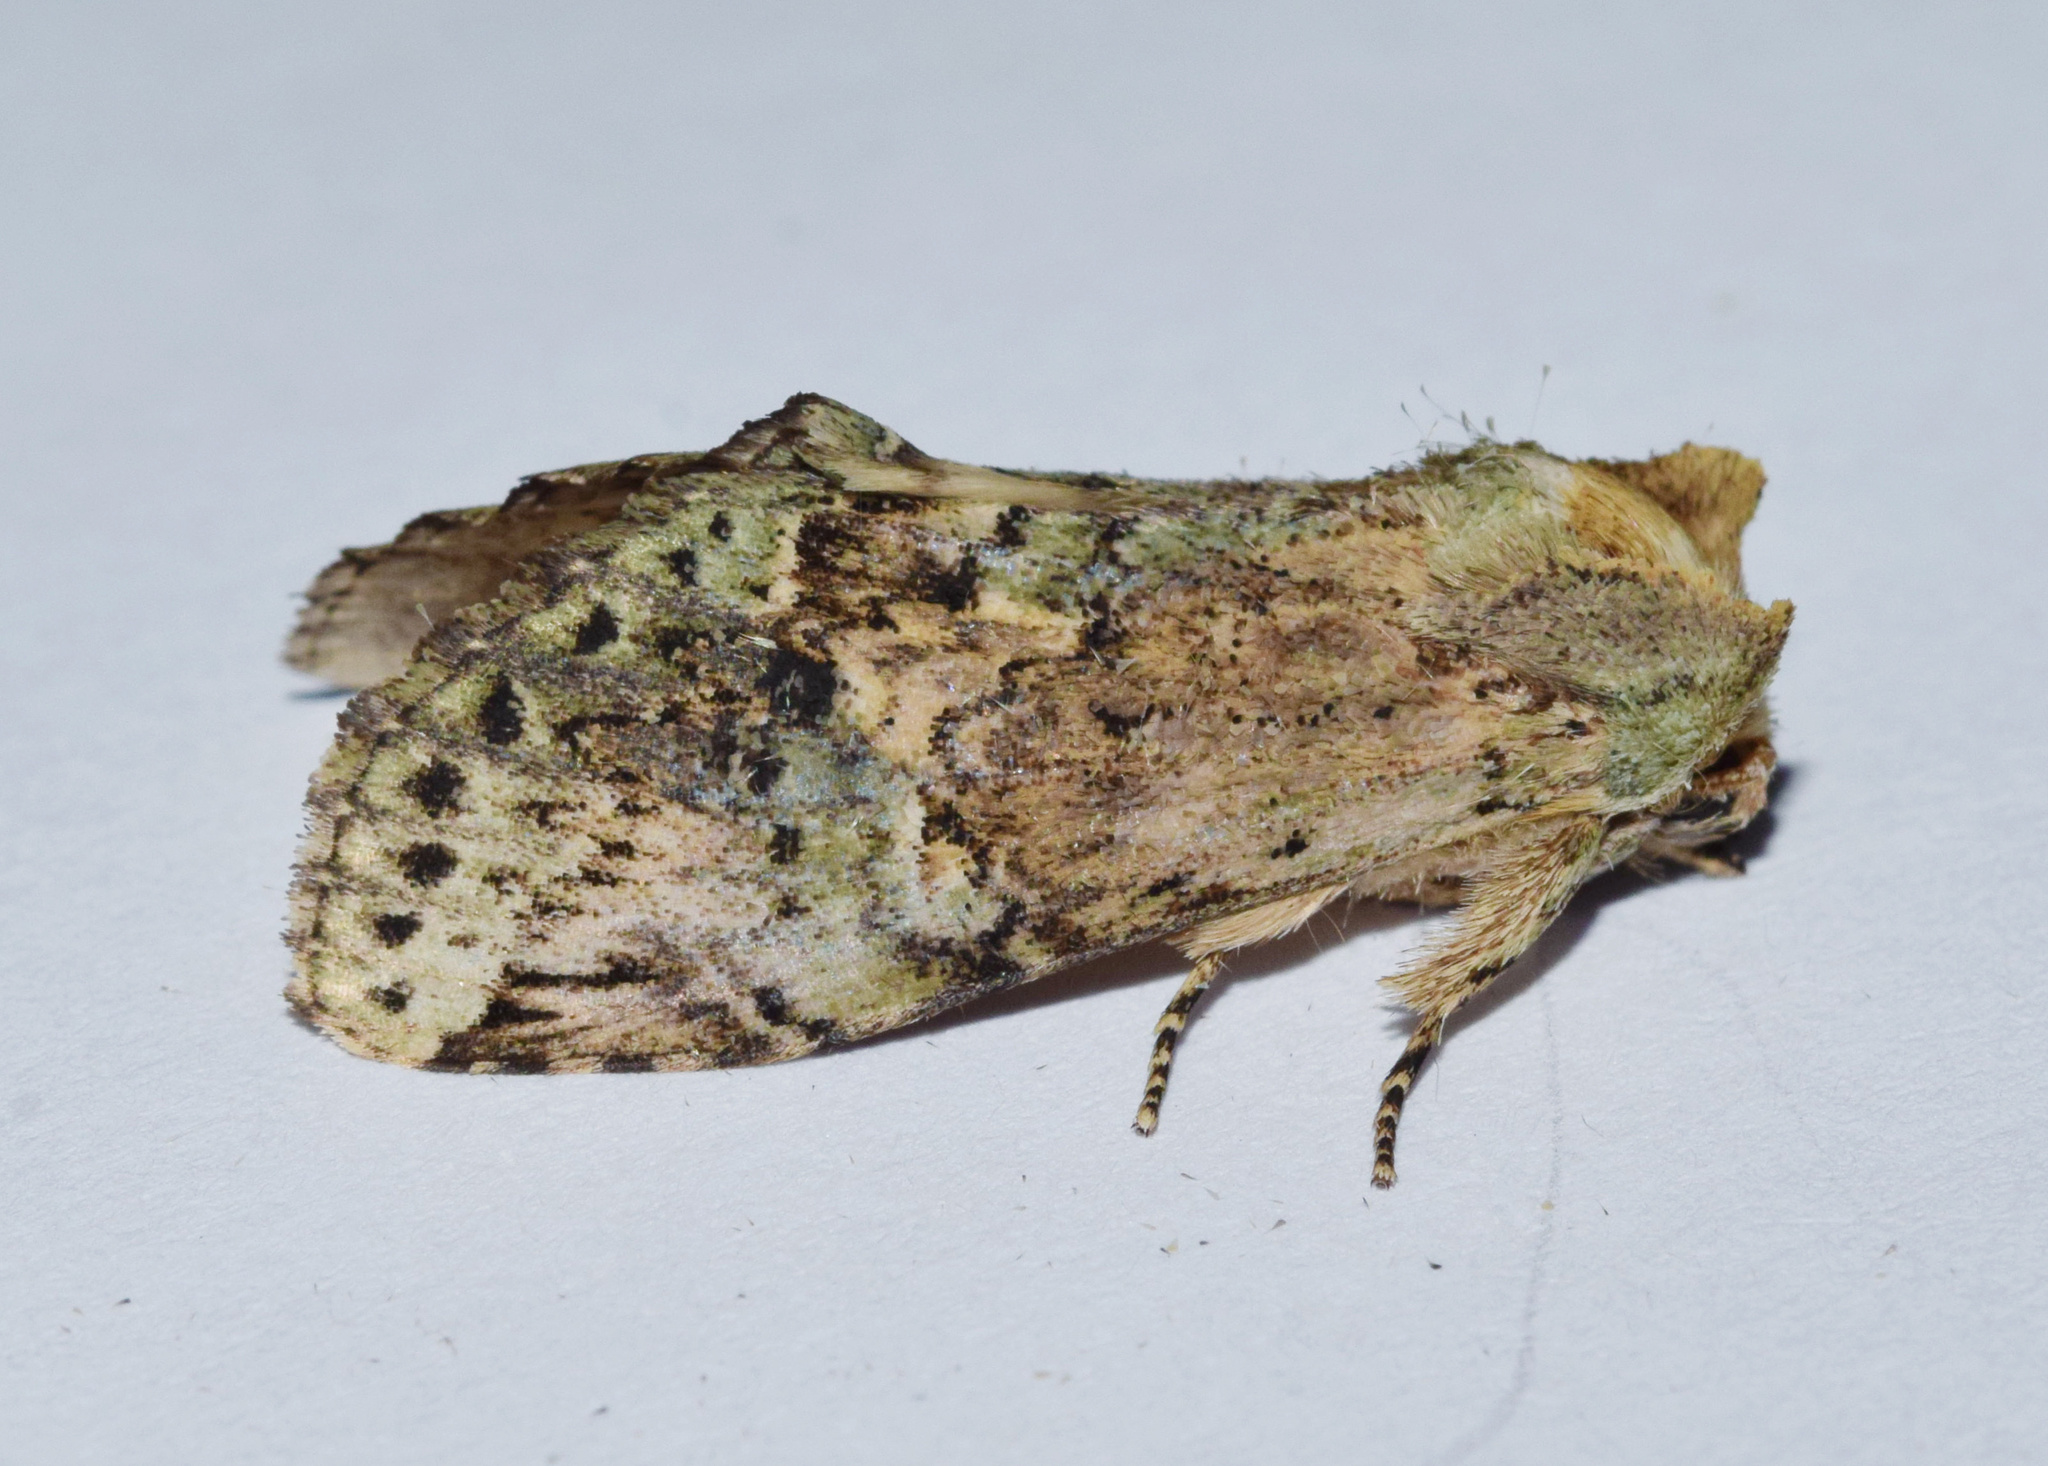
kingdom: Animalia
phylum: Arthropoda
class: Insecta
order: Lepidoptera
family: Notodontidae
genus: Stemmatophalera
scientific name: Stemmatophalera curvilinea
